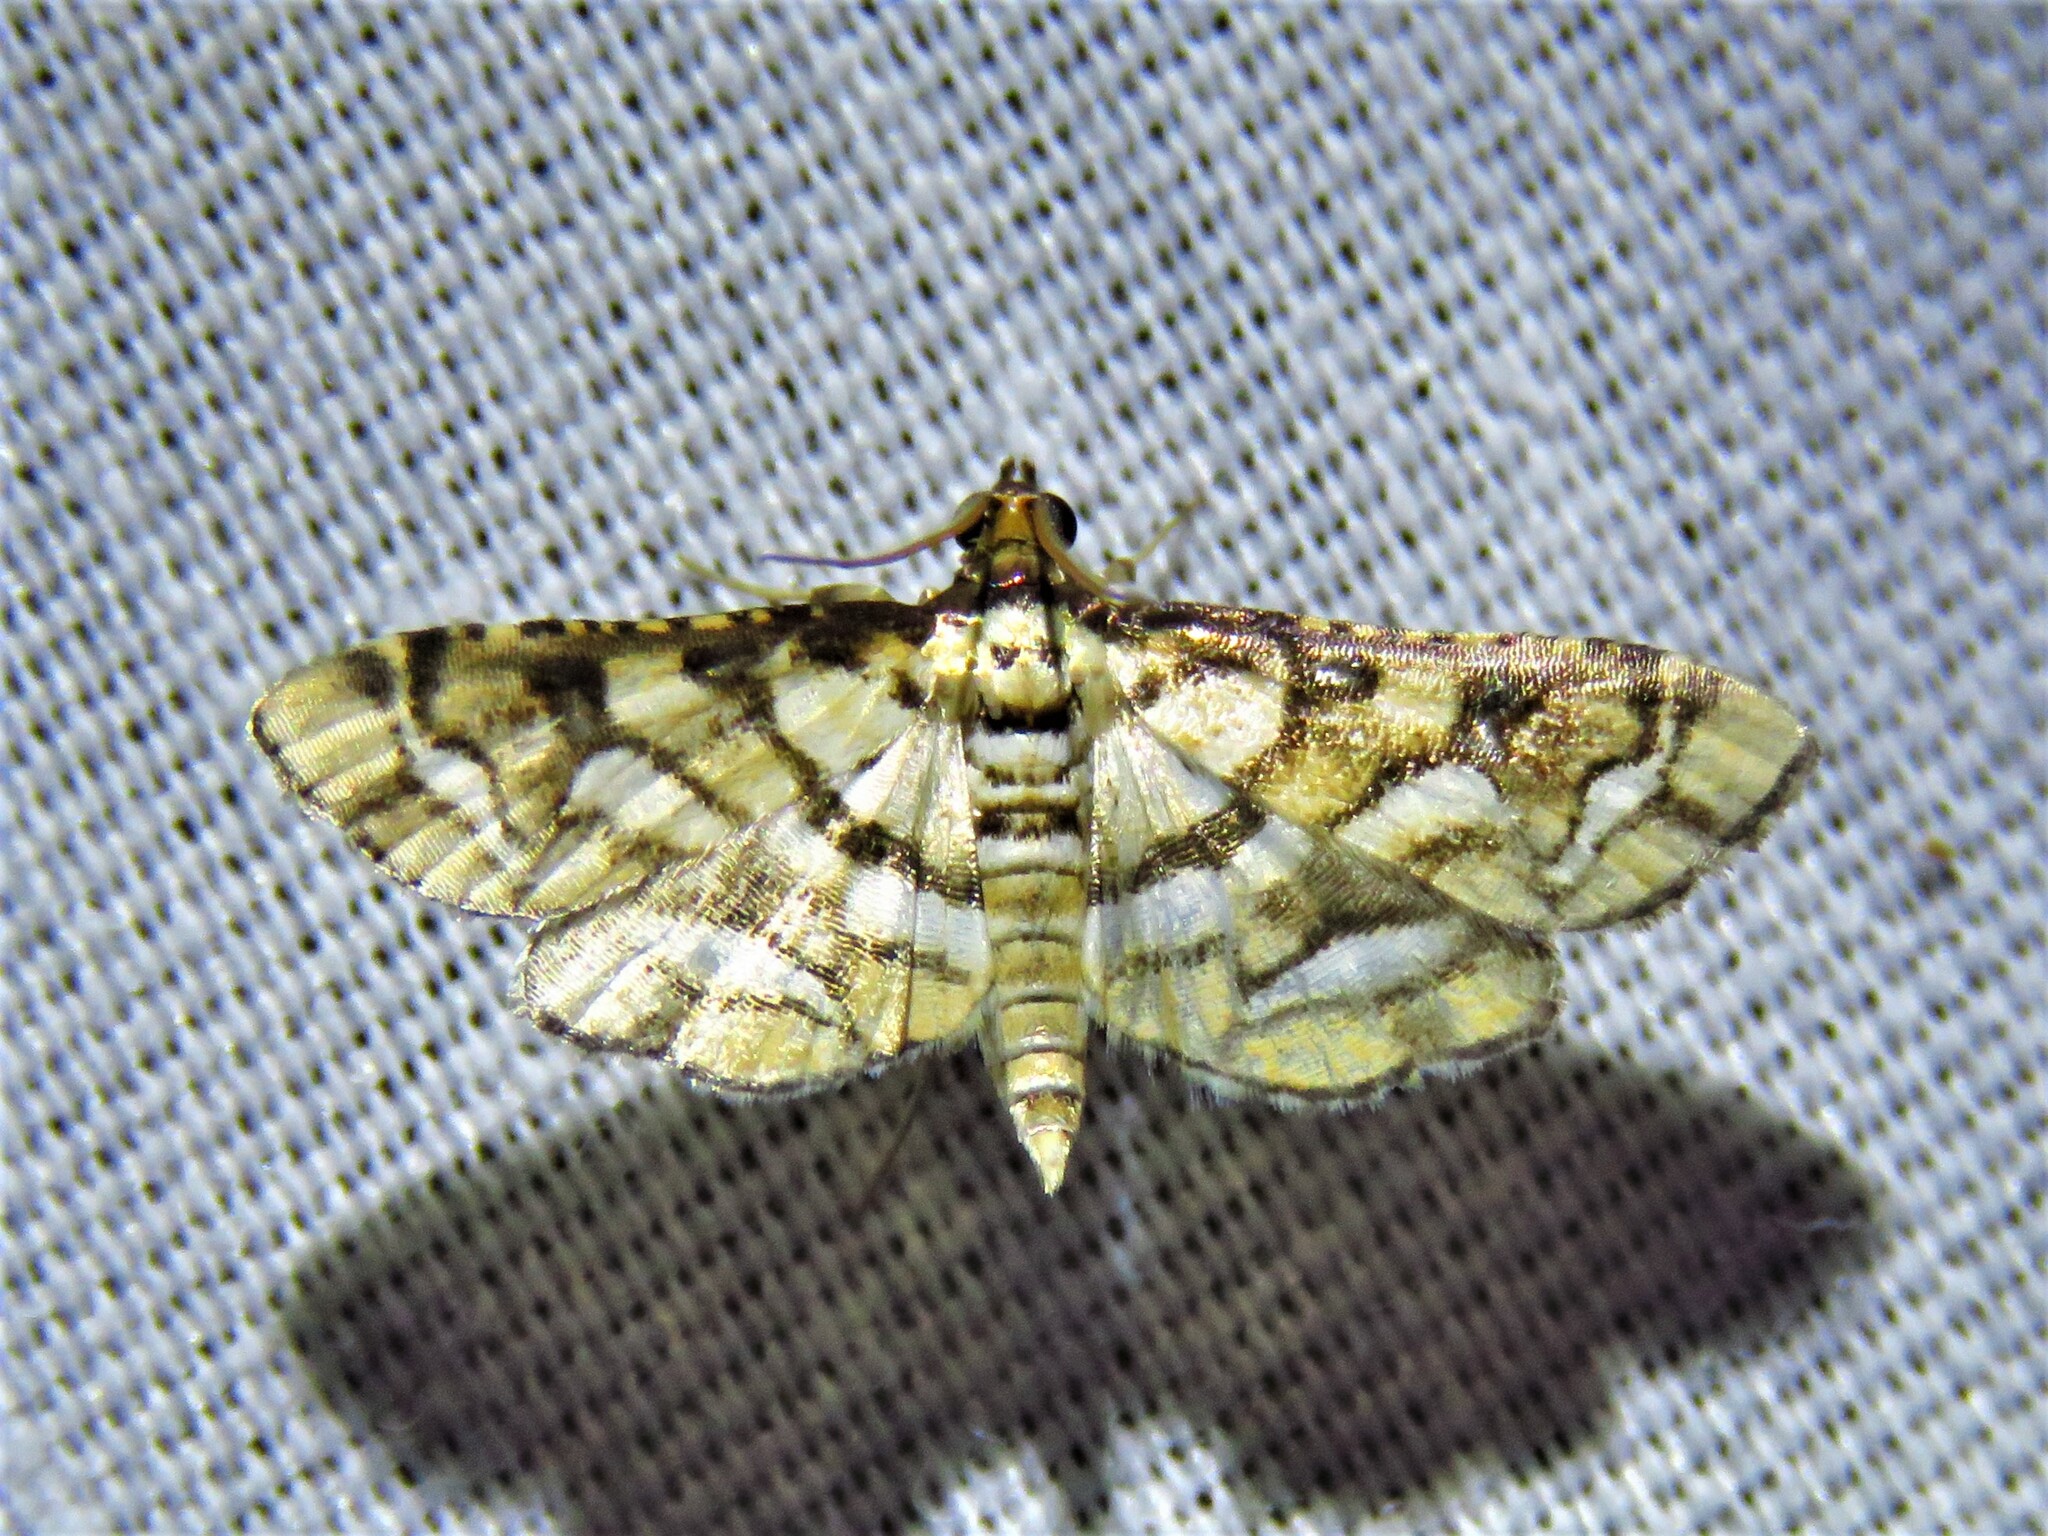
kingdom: Animalia
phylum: Arthropoda
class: Insecta
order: Lepidoptera
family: Crambidae
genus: Hileithia
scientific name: Hileithia magualis
